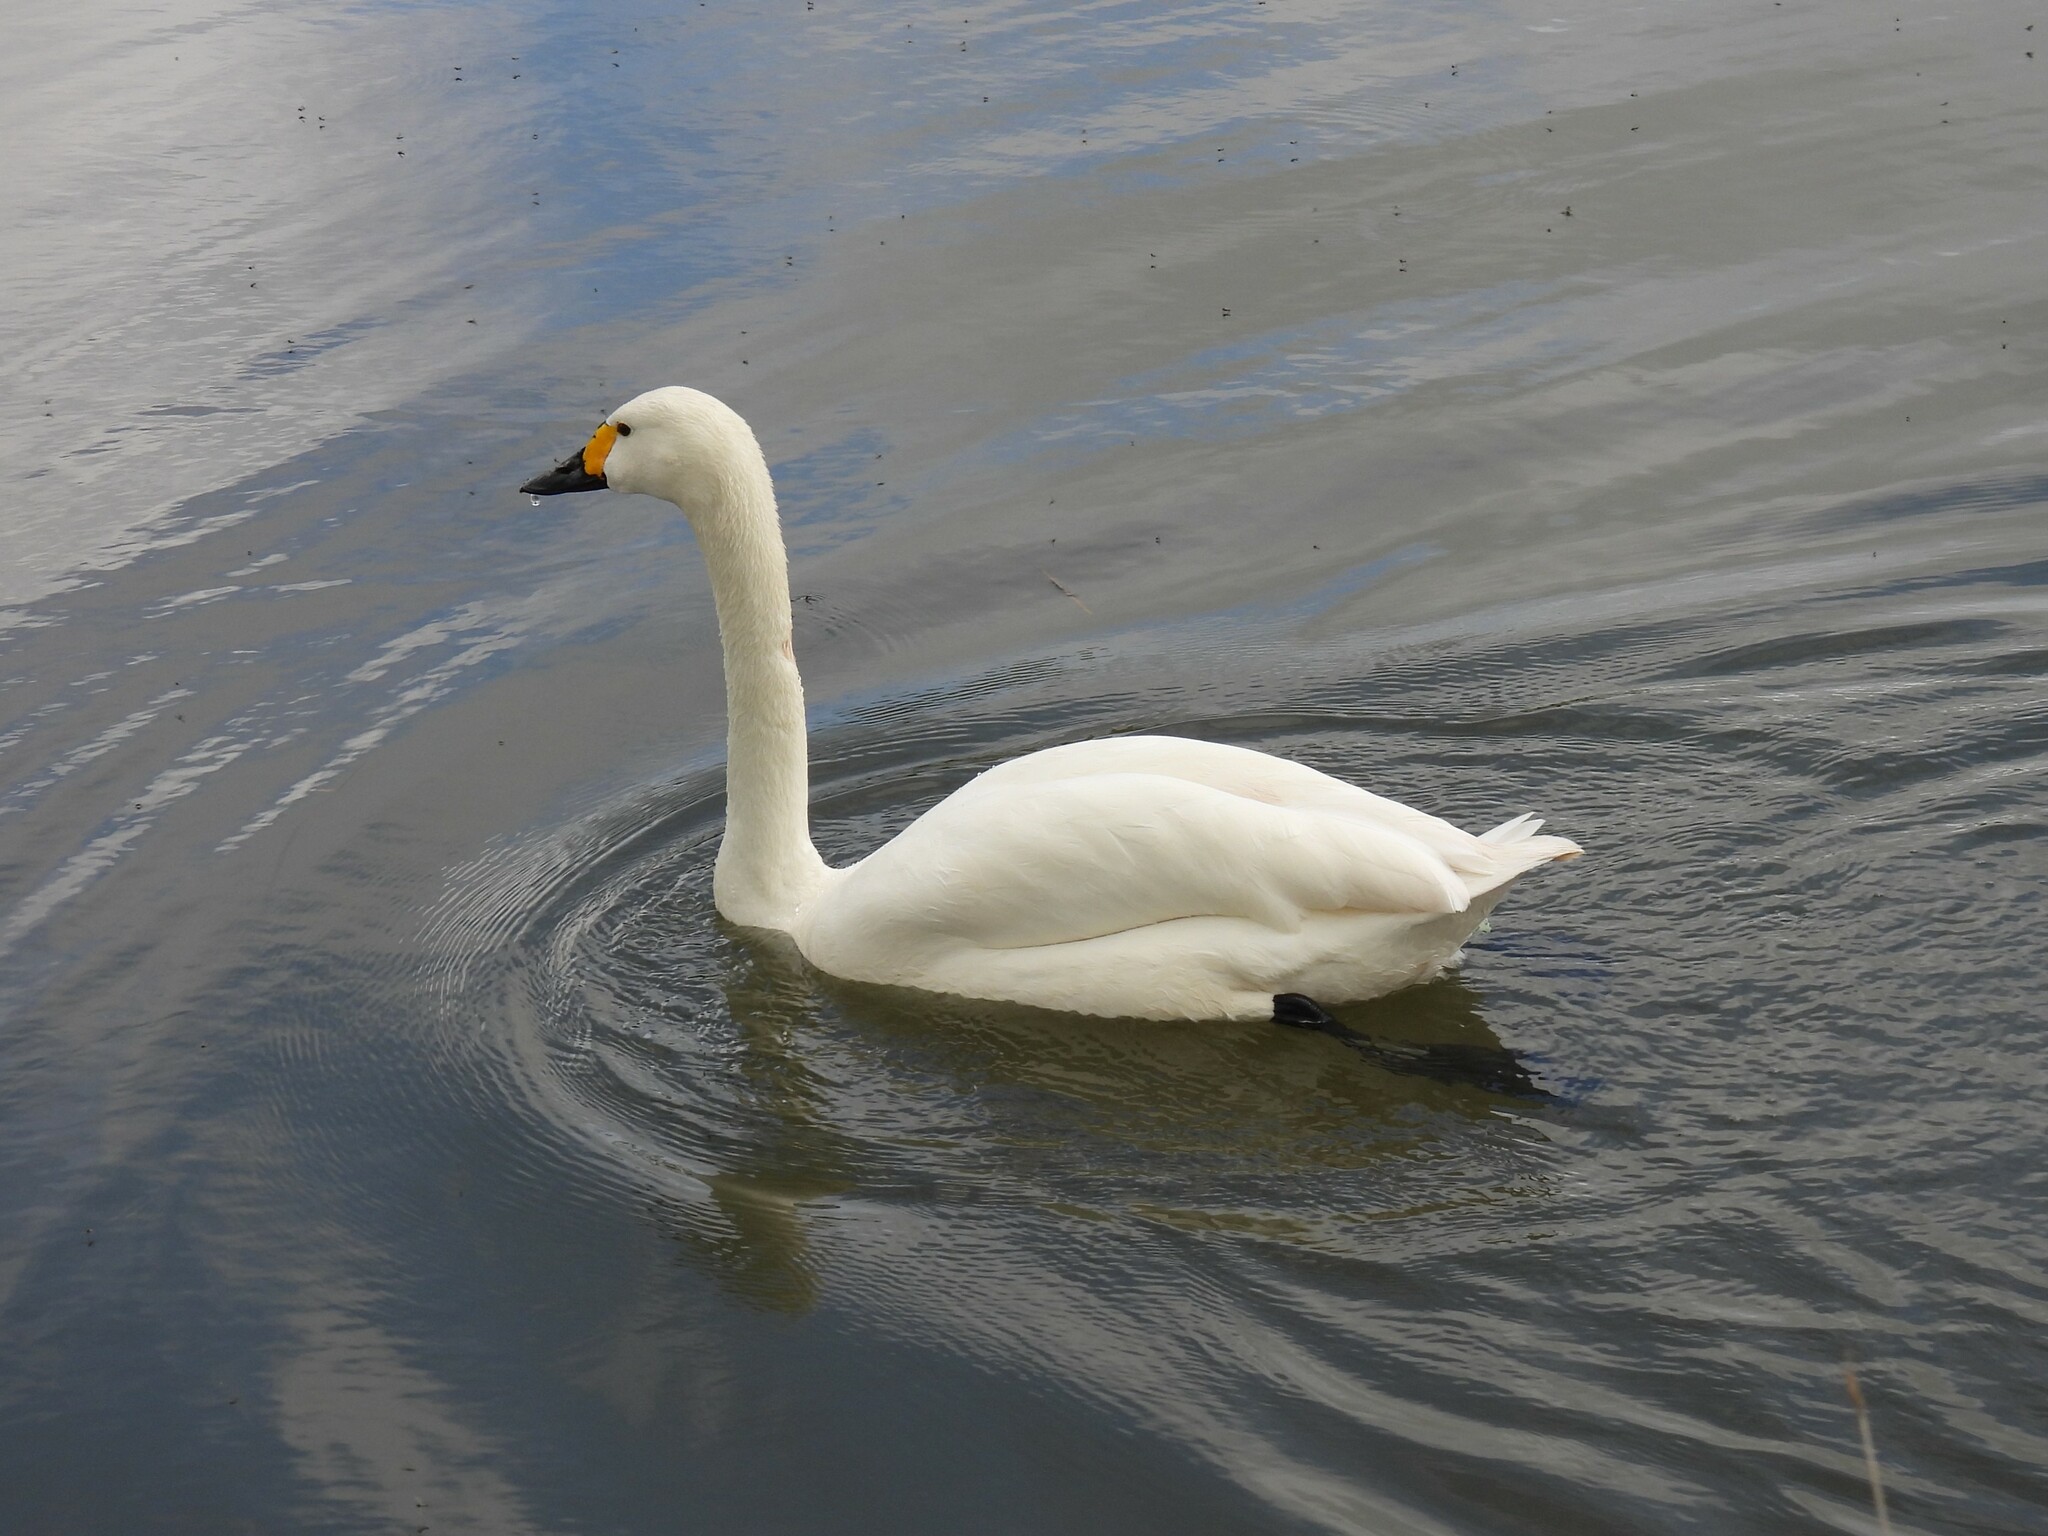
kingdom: Animalia
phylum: Chordata
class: Aves
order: Anseriformes
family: Anatidae
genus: Cygnus
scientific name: Cygnus columbianus
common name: Tundra swan
